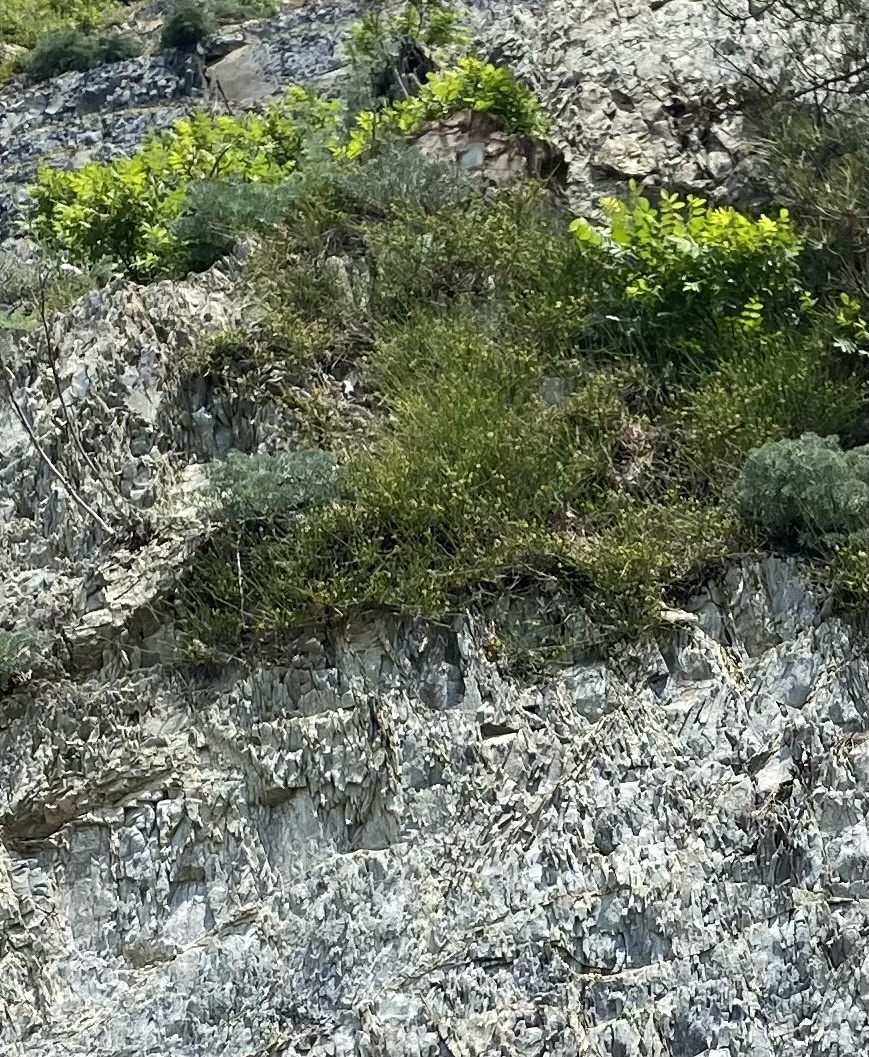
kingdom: Plantae
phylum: Tracheophyta
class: Gnetopsida
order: Ephedrales
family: Ephedraceae
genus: Ephedra
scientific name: Ephedra distachya
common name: Sea grape
